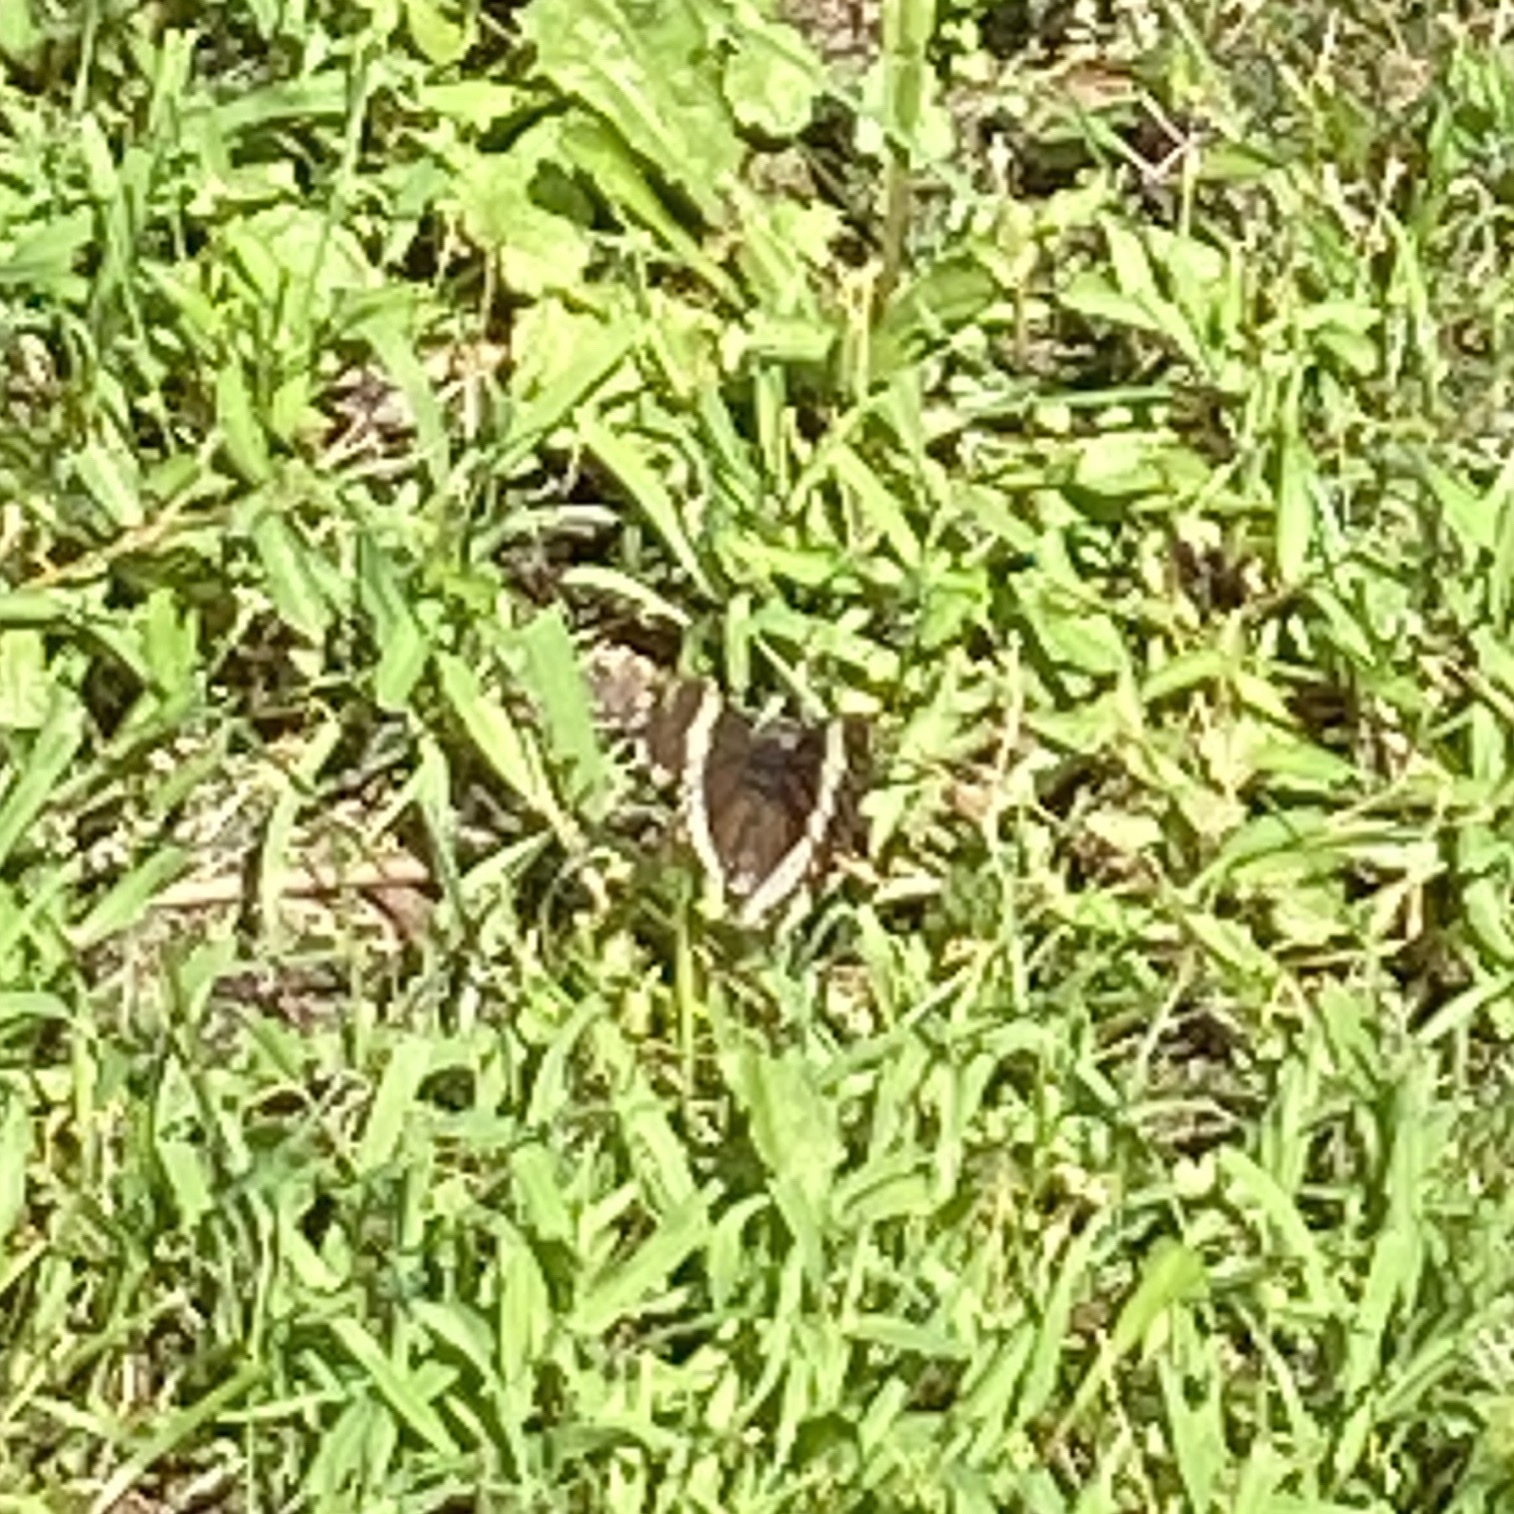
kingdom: Animalia
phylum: Arthropoda
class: Insecta
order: Lepidoptera
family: Nymphalidae
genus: Limenitis
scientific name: Limenitis arthemis
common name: Red-spotted admiral
